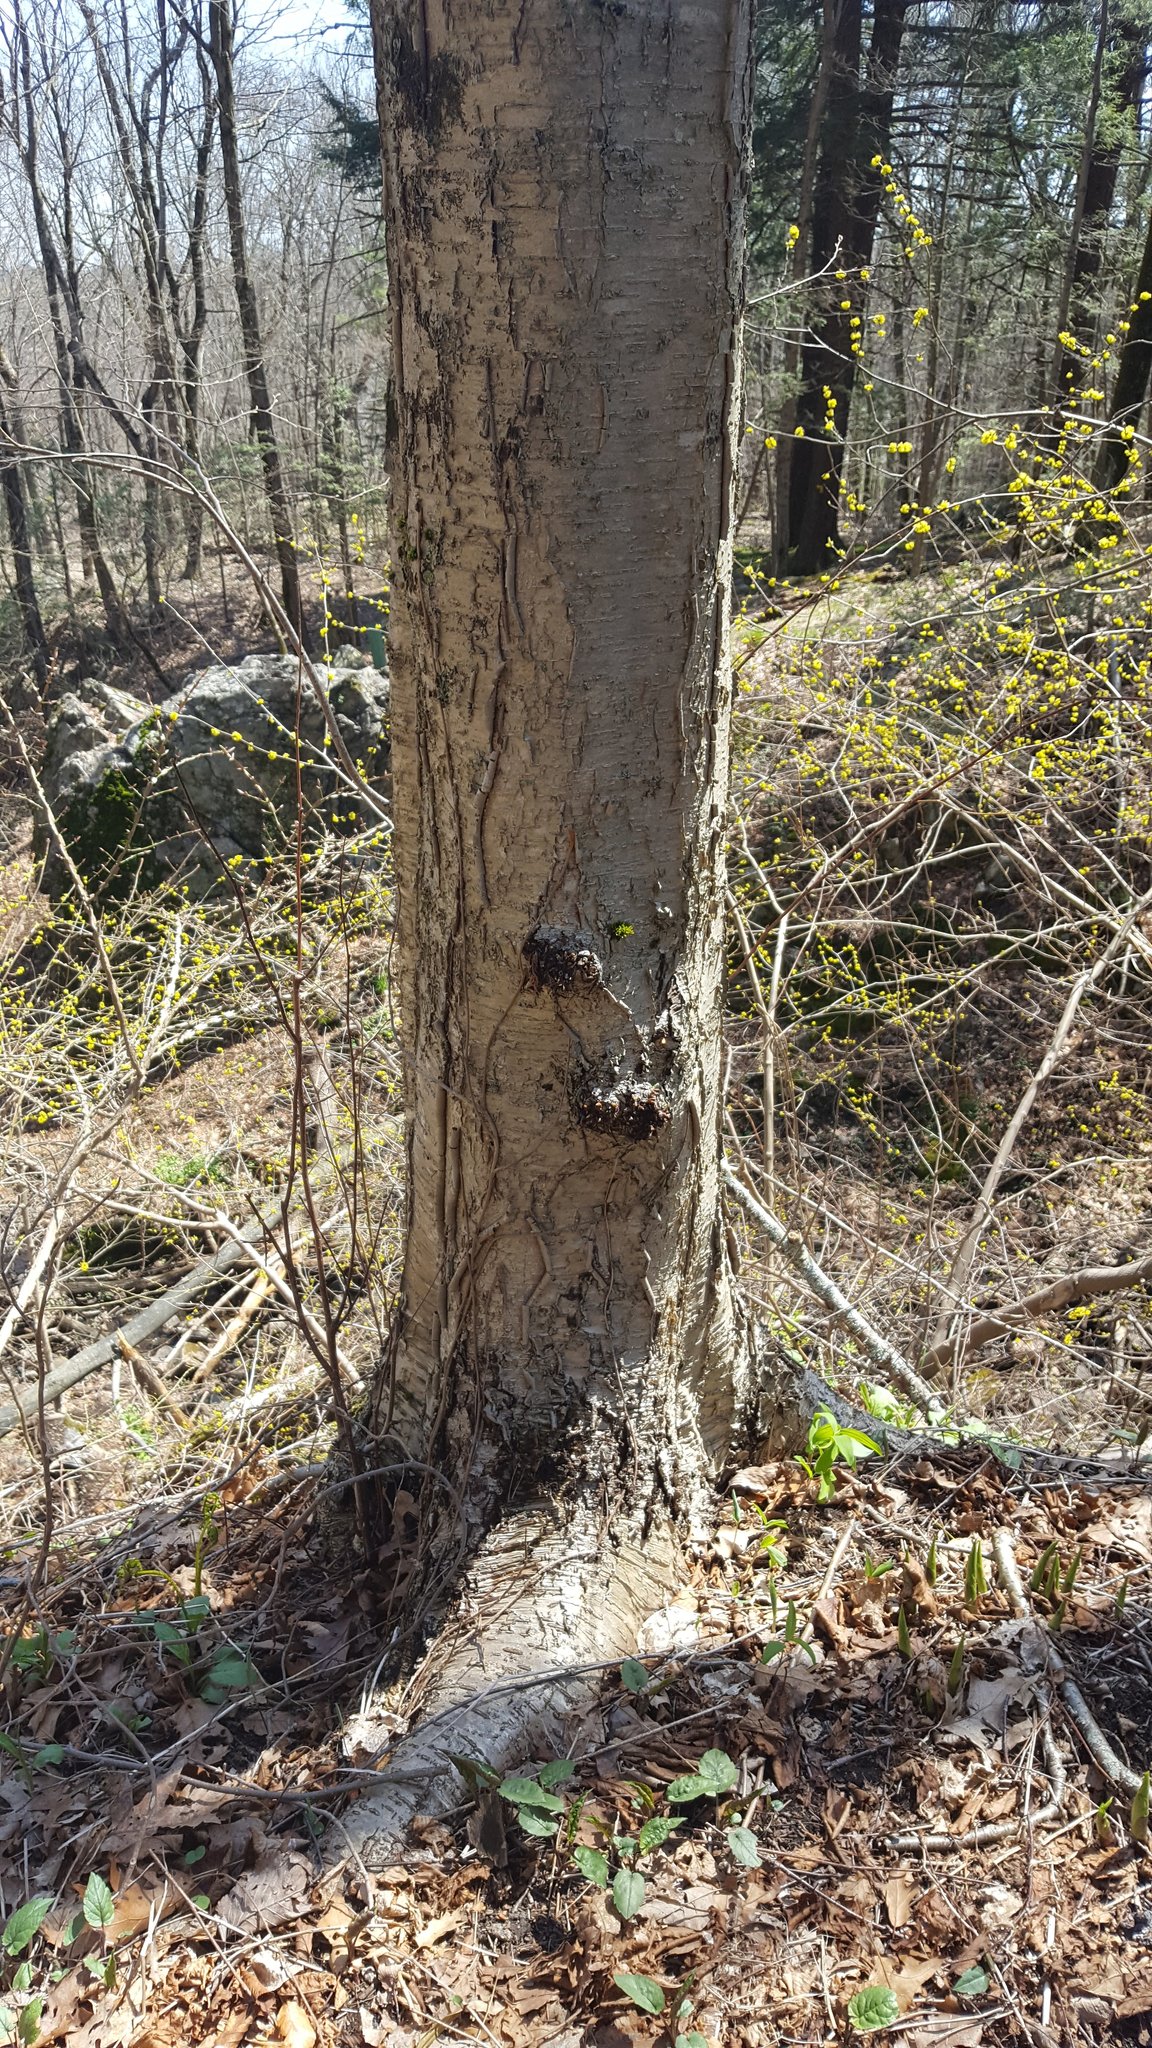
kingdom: Plantae
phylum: Tracheophyta
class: Magnoliopsida
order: Fagales
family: Betulaceae
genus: Betula
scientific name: Betula alleghaniensis
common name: Yellow birch
